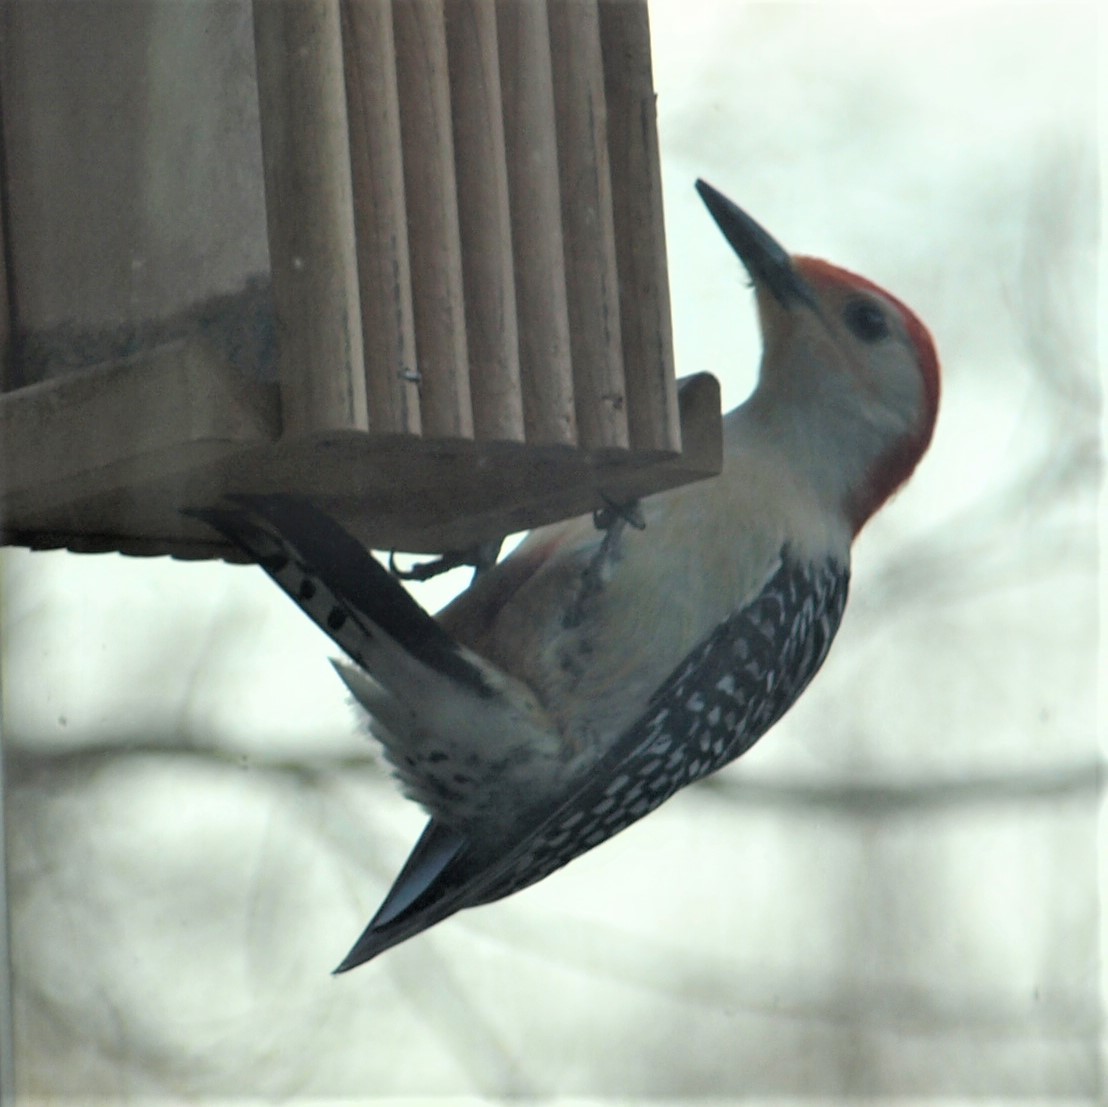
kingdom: Animalia
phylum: Chordata
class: Aves
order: Piciformes
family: Picidae
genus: Melanerpes
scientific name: Melanerpes carolinus
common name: Red-bellied woodpecker
